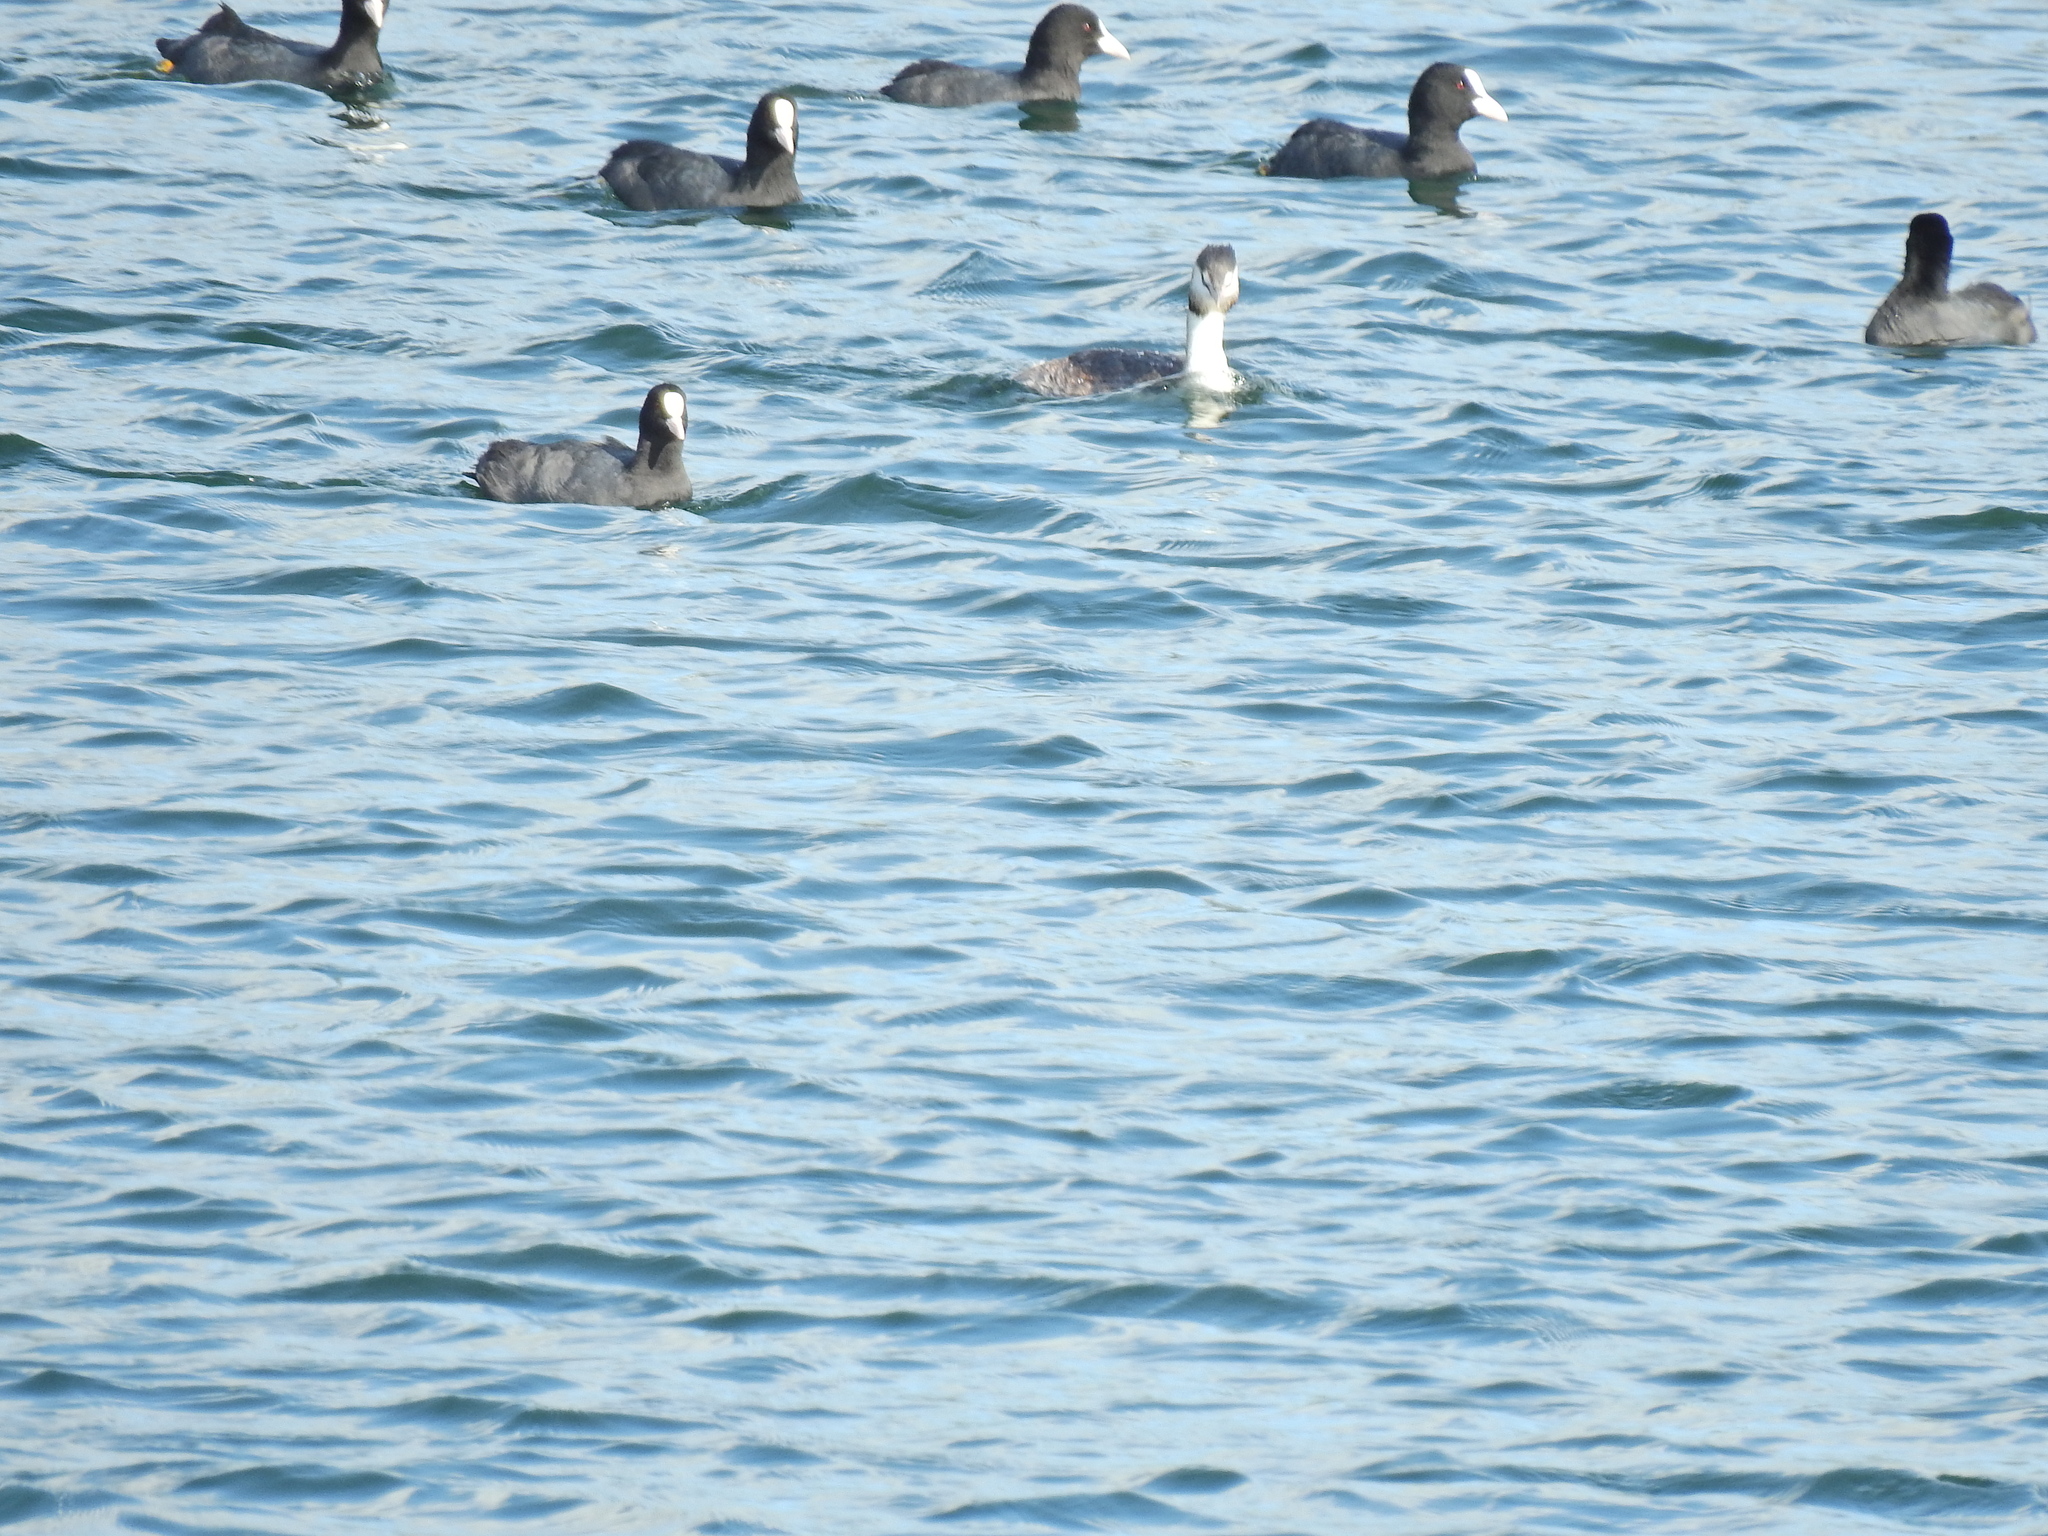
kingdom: Animalia
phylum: Chordata
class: Aves
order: Gruiformes
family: Rallidae
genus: Fulica
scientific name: Fulica atra
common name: Eurasian coot
